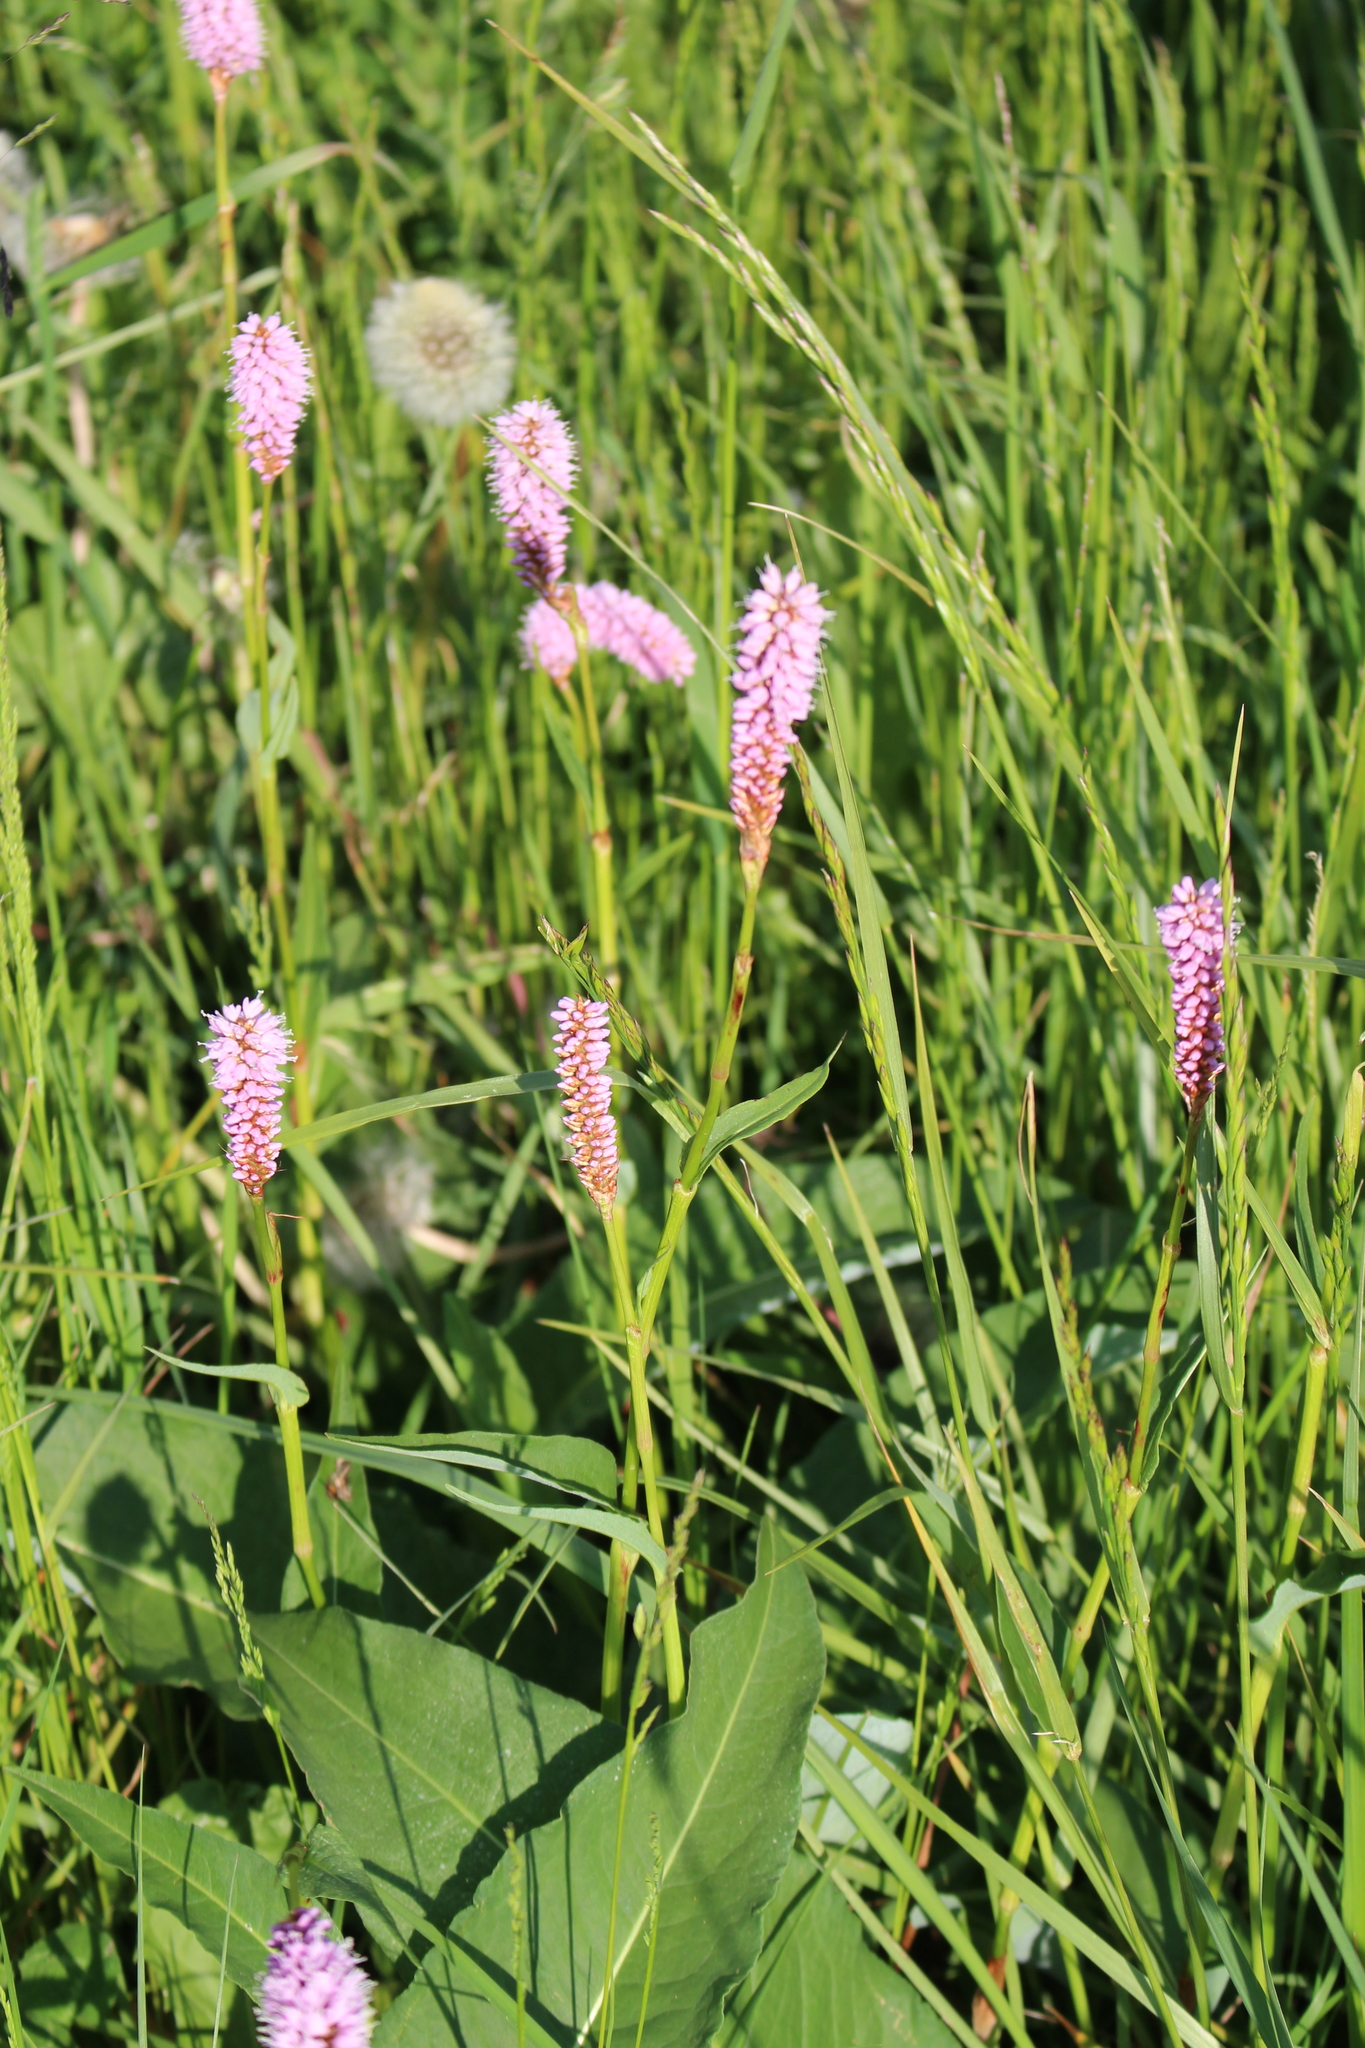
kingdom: Plantae
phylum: Tracheophyta
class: Magnoliopsida
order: Caryophyllales
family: Polygonaceae
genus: Bistorta
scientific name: Bistorta officinalis
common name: Common bistort
